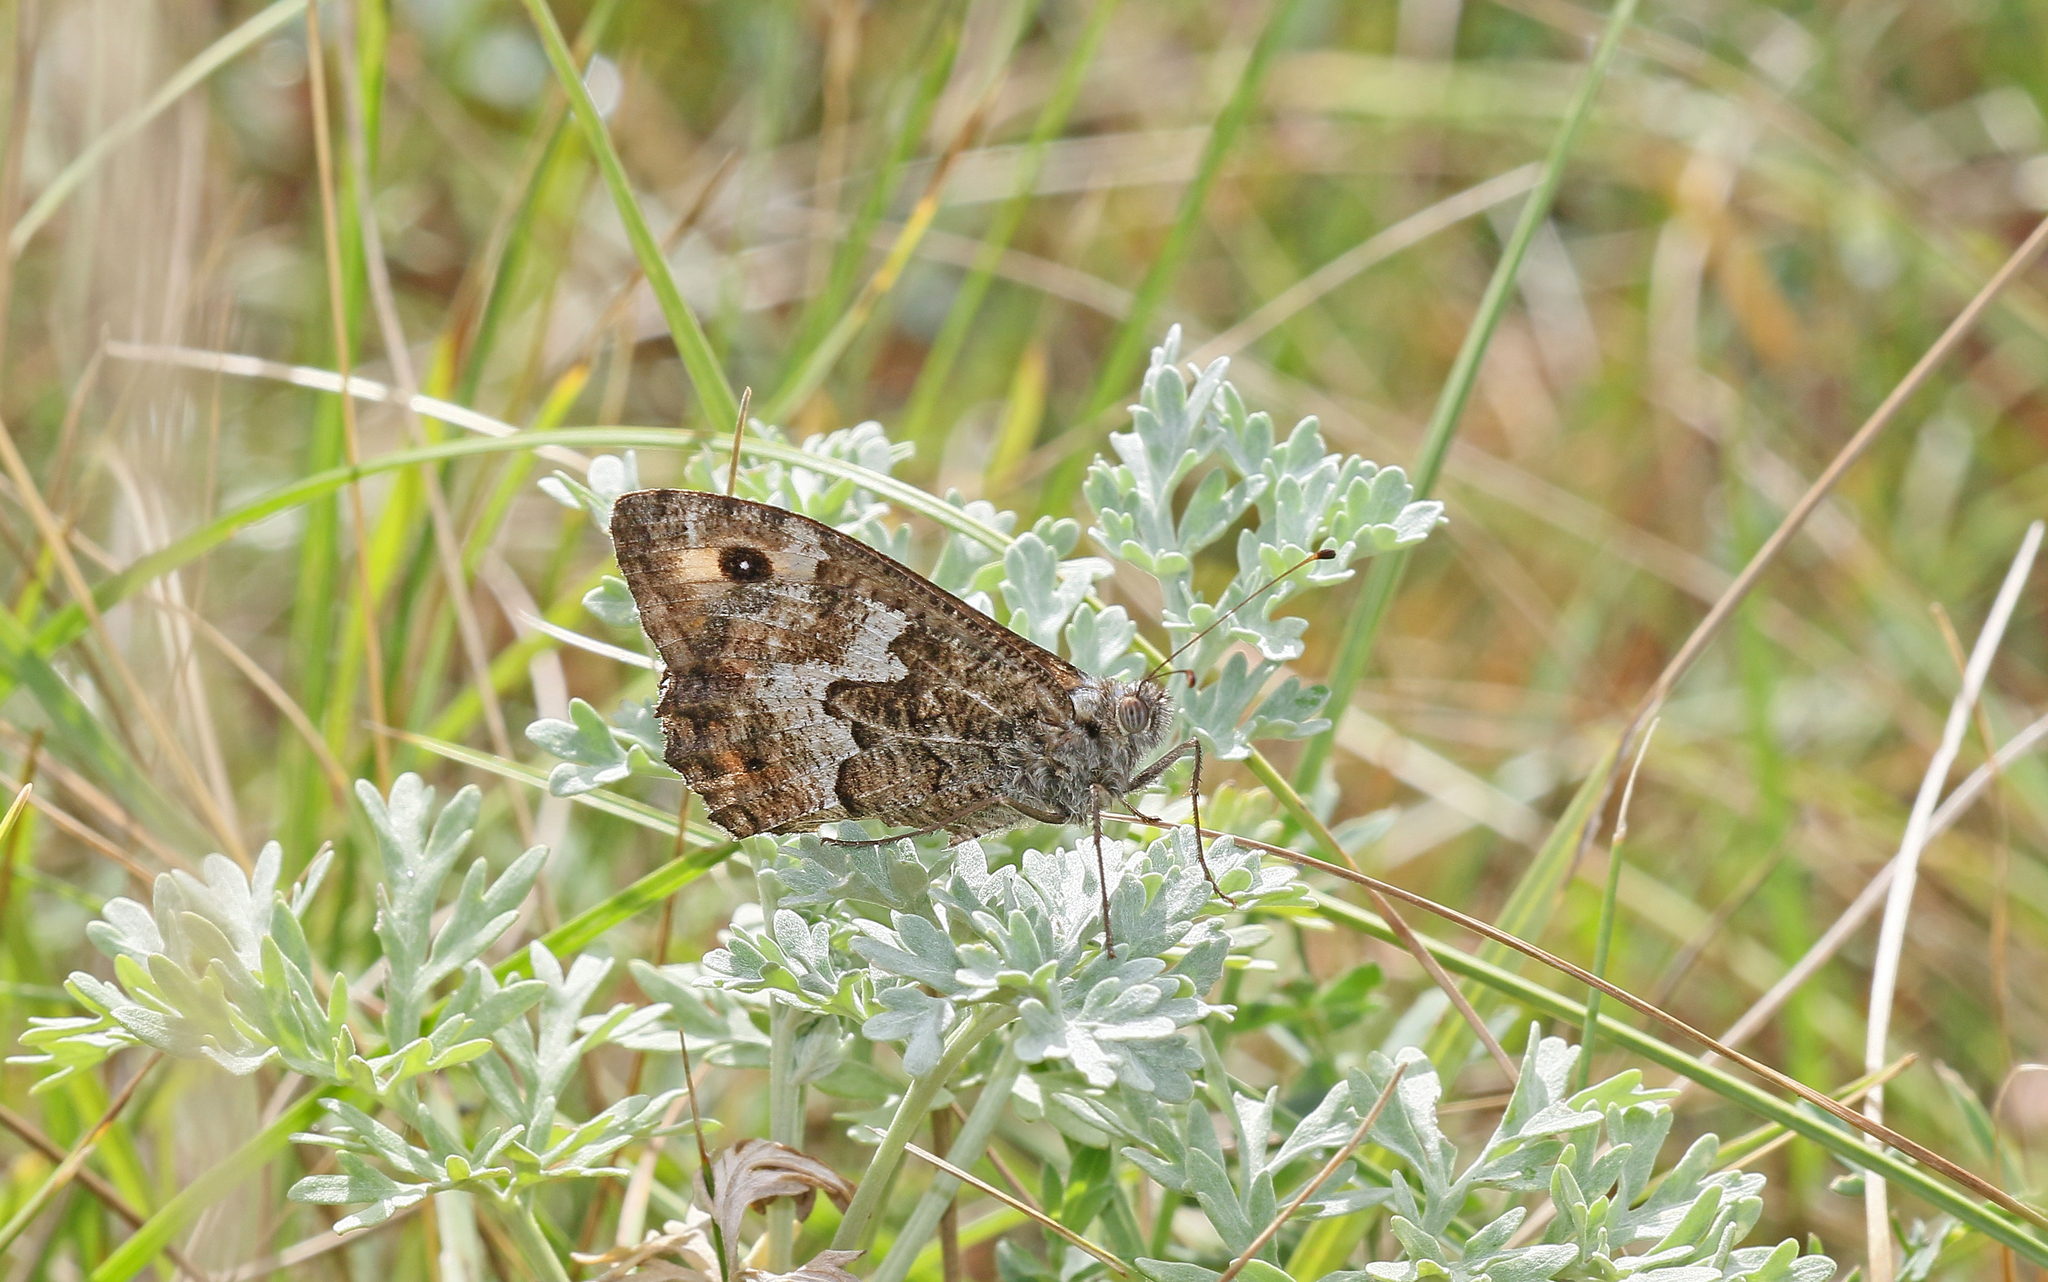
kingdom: Animalia
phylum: Arthropoda
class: Insecta
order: Lepidoptera
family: Nymphalidae
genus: Hipparchia
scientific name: Hipparchia semele
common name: Grayling
